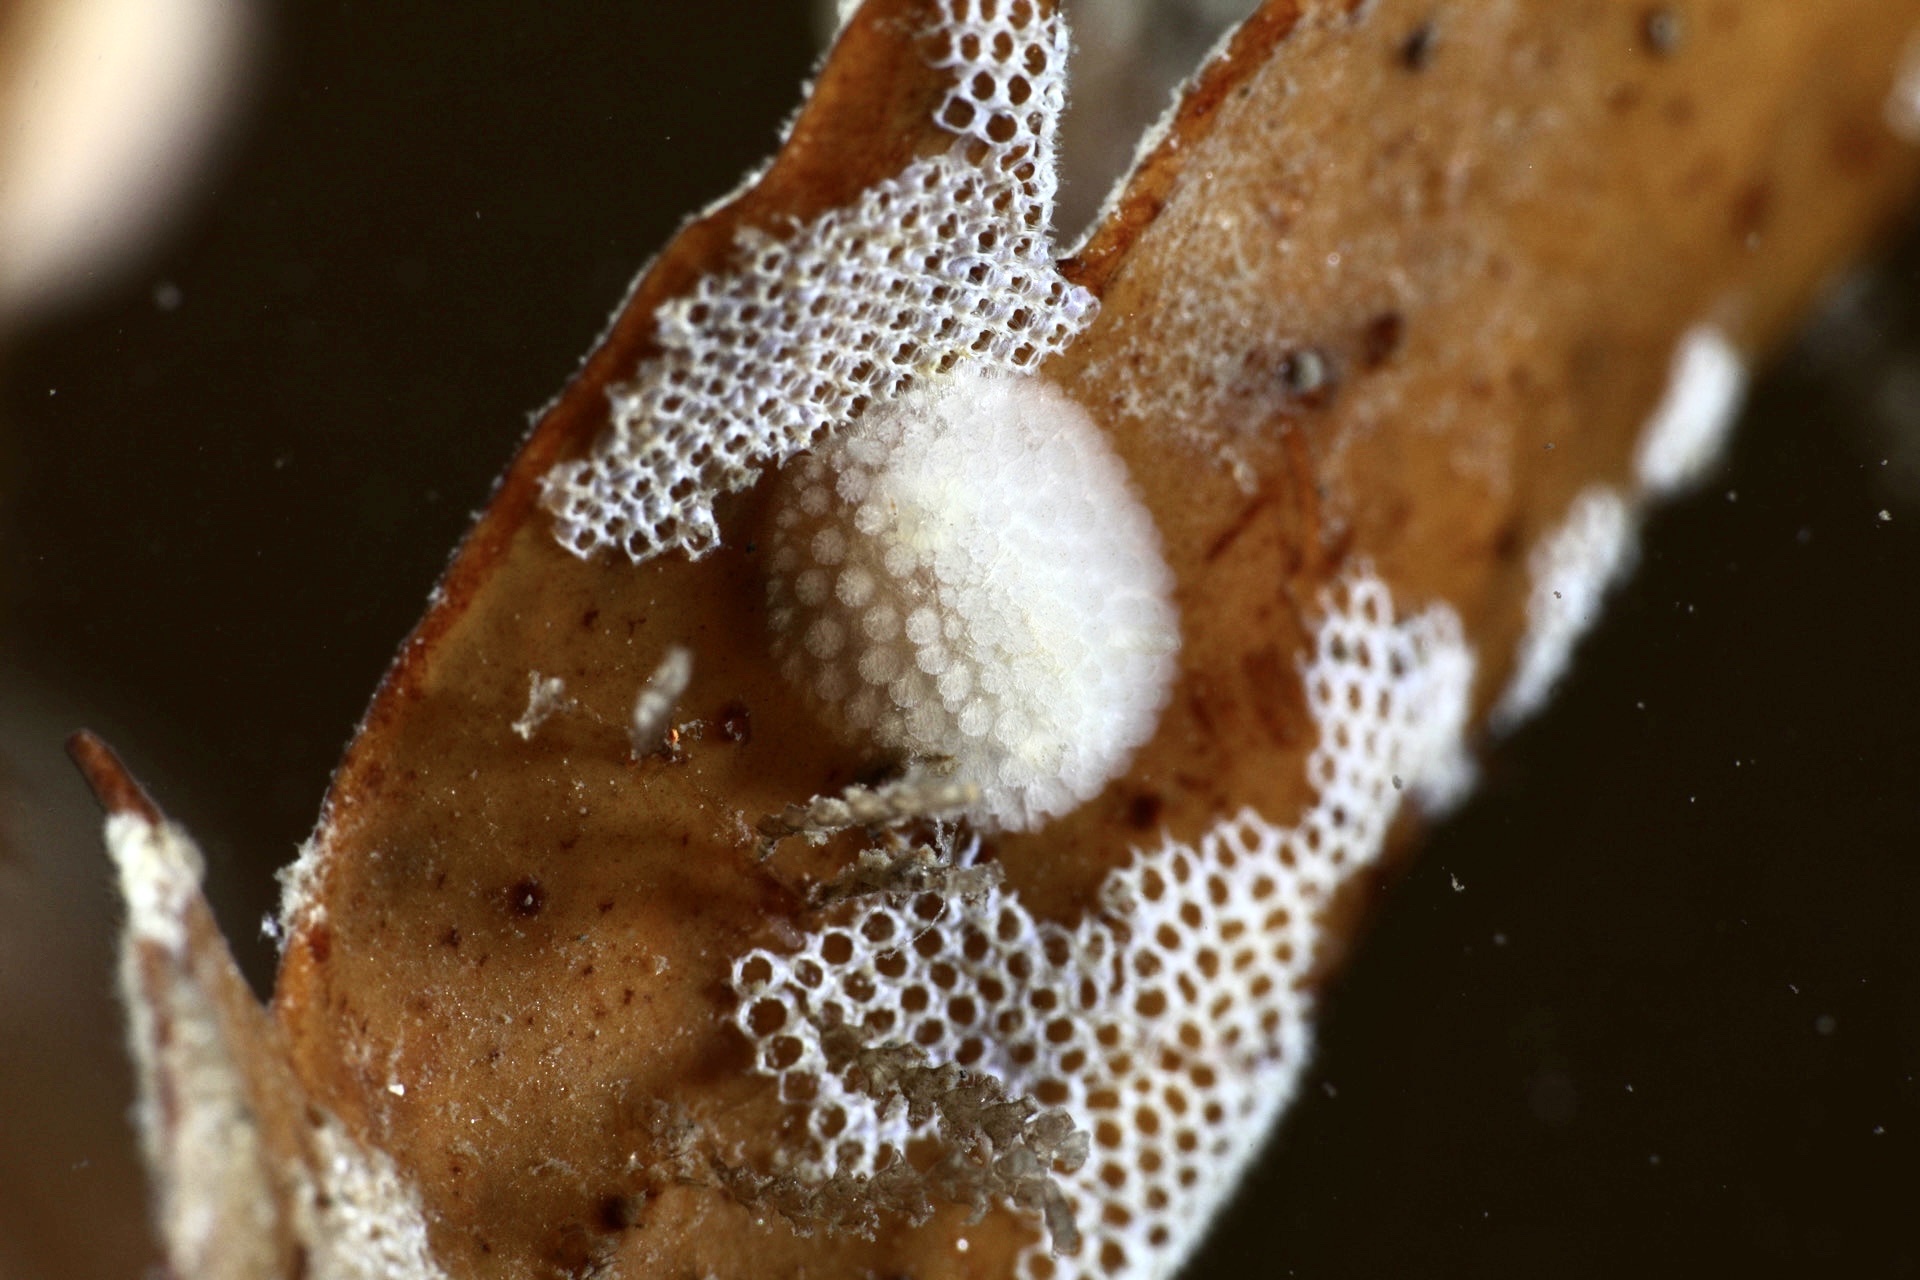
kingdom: Animalia
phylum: Mollusca
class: Gastropoda
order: Nudibranchia
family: Onchidorididae
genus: Onchidoris
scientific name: Onchidoris muricata
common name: Rough doris
